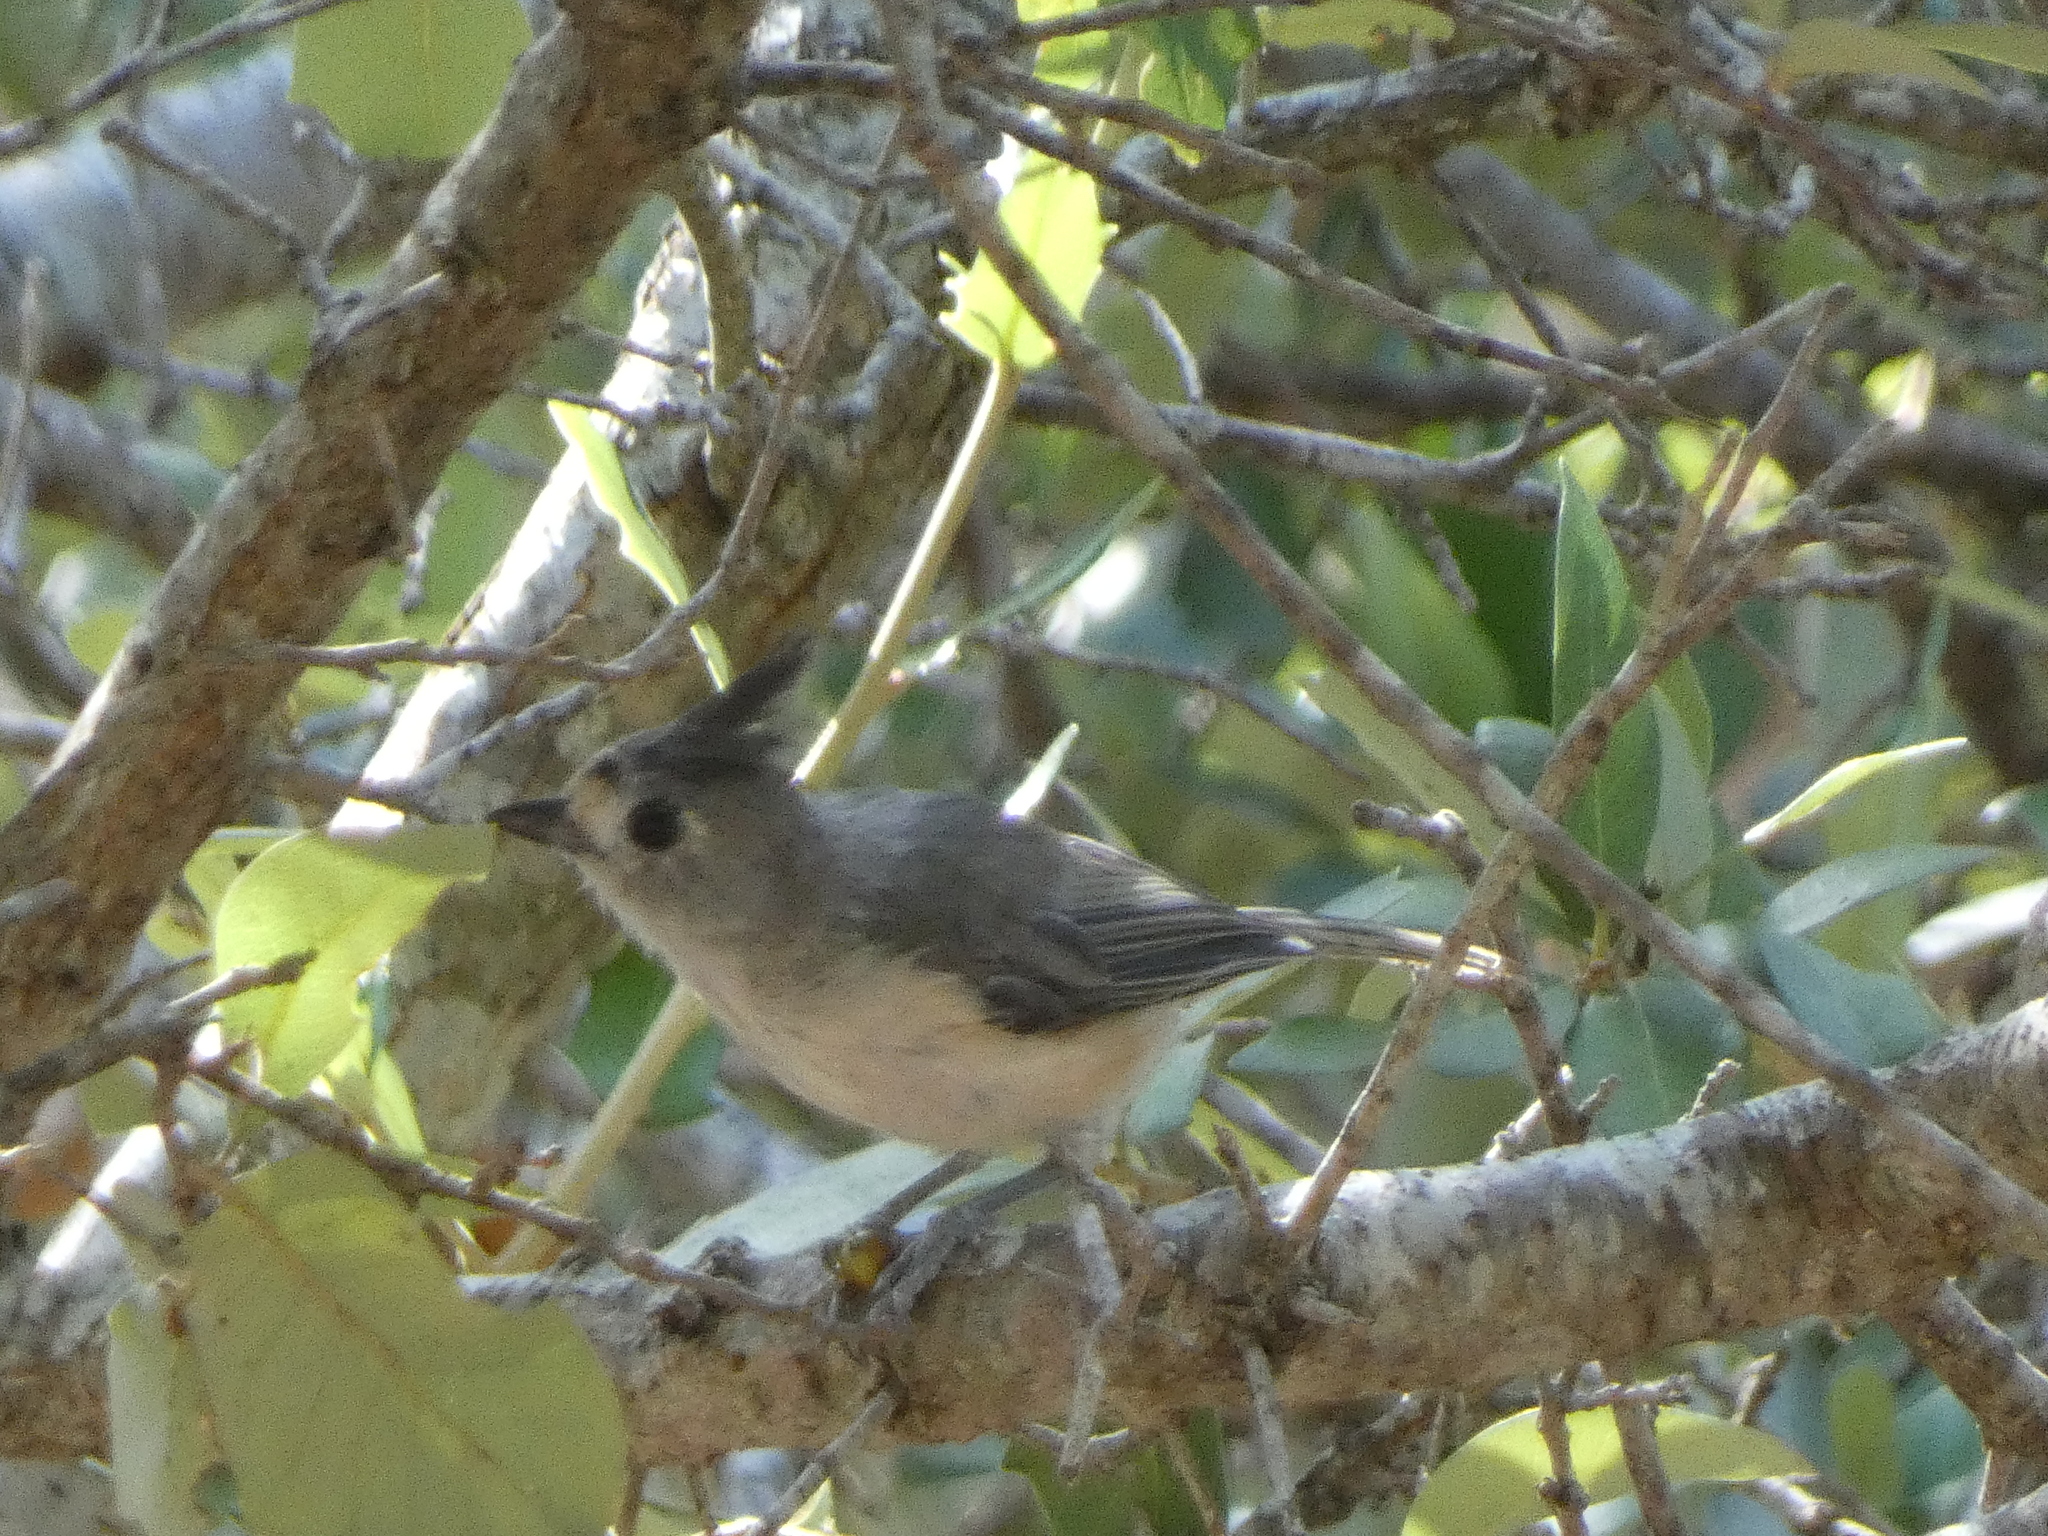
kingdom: Animalia
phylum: Chordata
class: Aves
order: Passeriformes
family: Paridae
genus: Baeolophus
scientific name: Baeolophus atricristatus
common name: Black-crested titmouse
